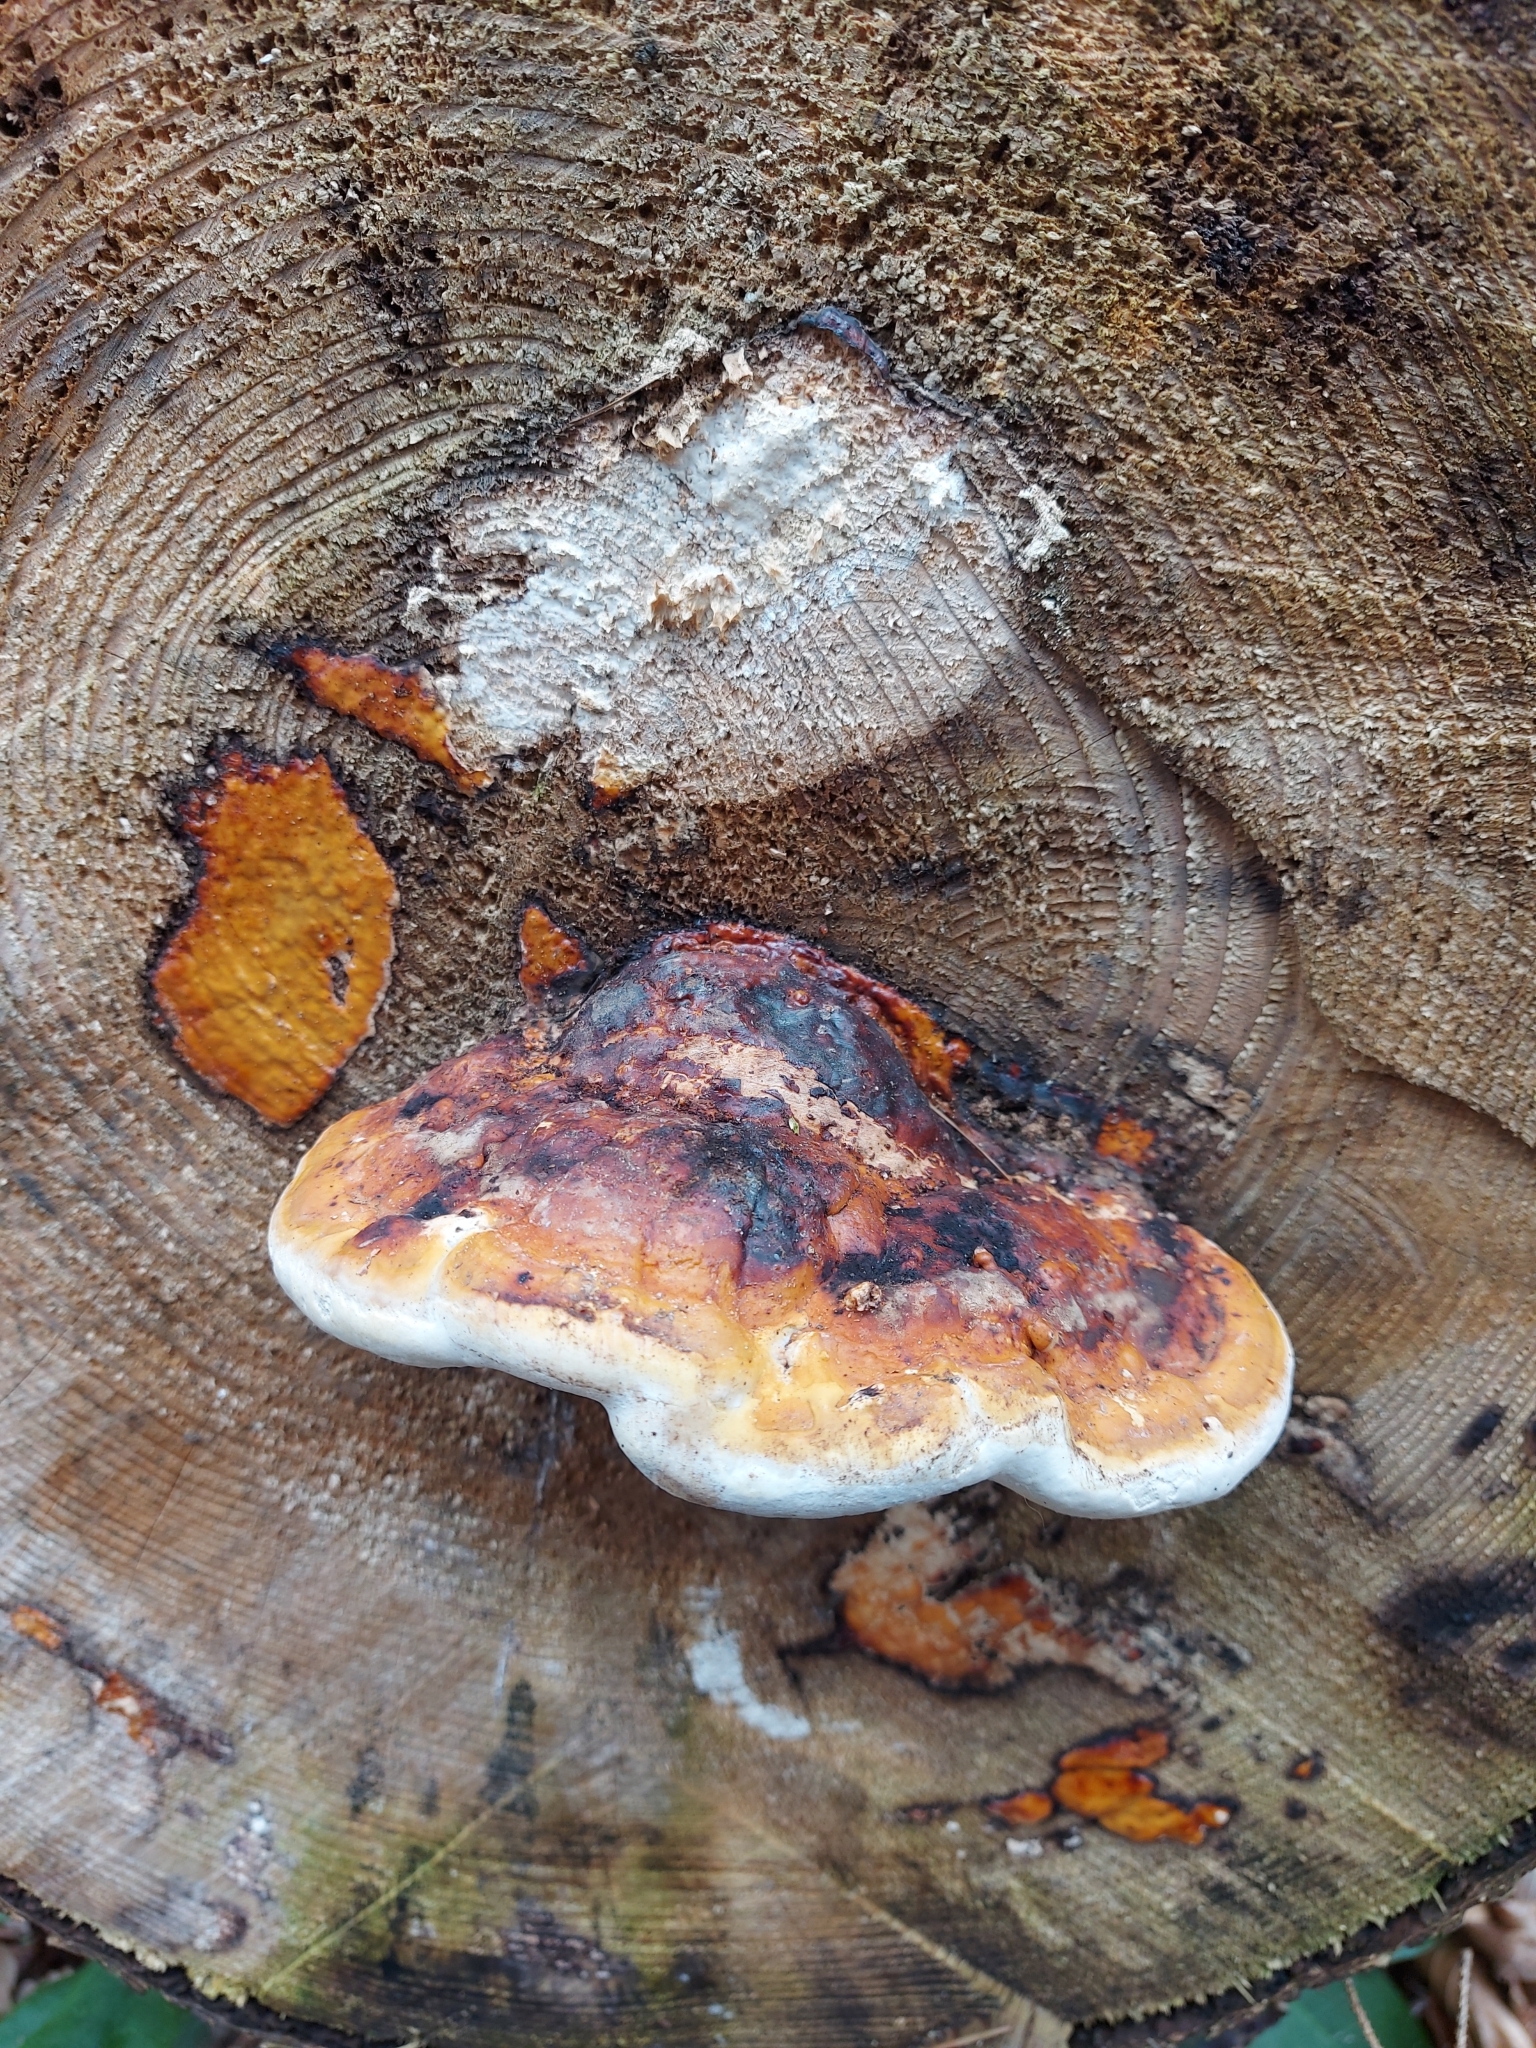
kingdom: Fungi
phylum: Basidiomycota
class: Agaricomycetes
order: Polyporales
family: Fomitopsidaceae
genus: Fomitopsis
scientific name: Fomitopsis pinicola
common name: Red-belted bracket
